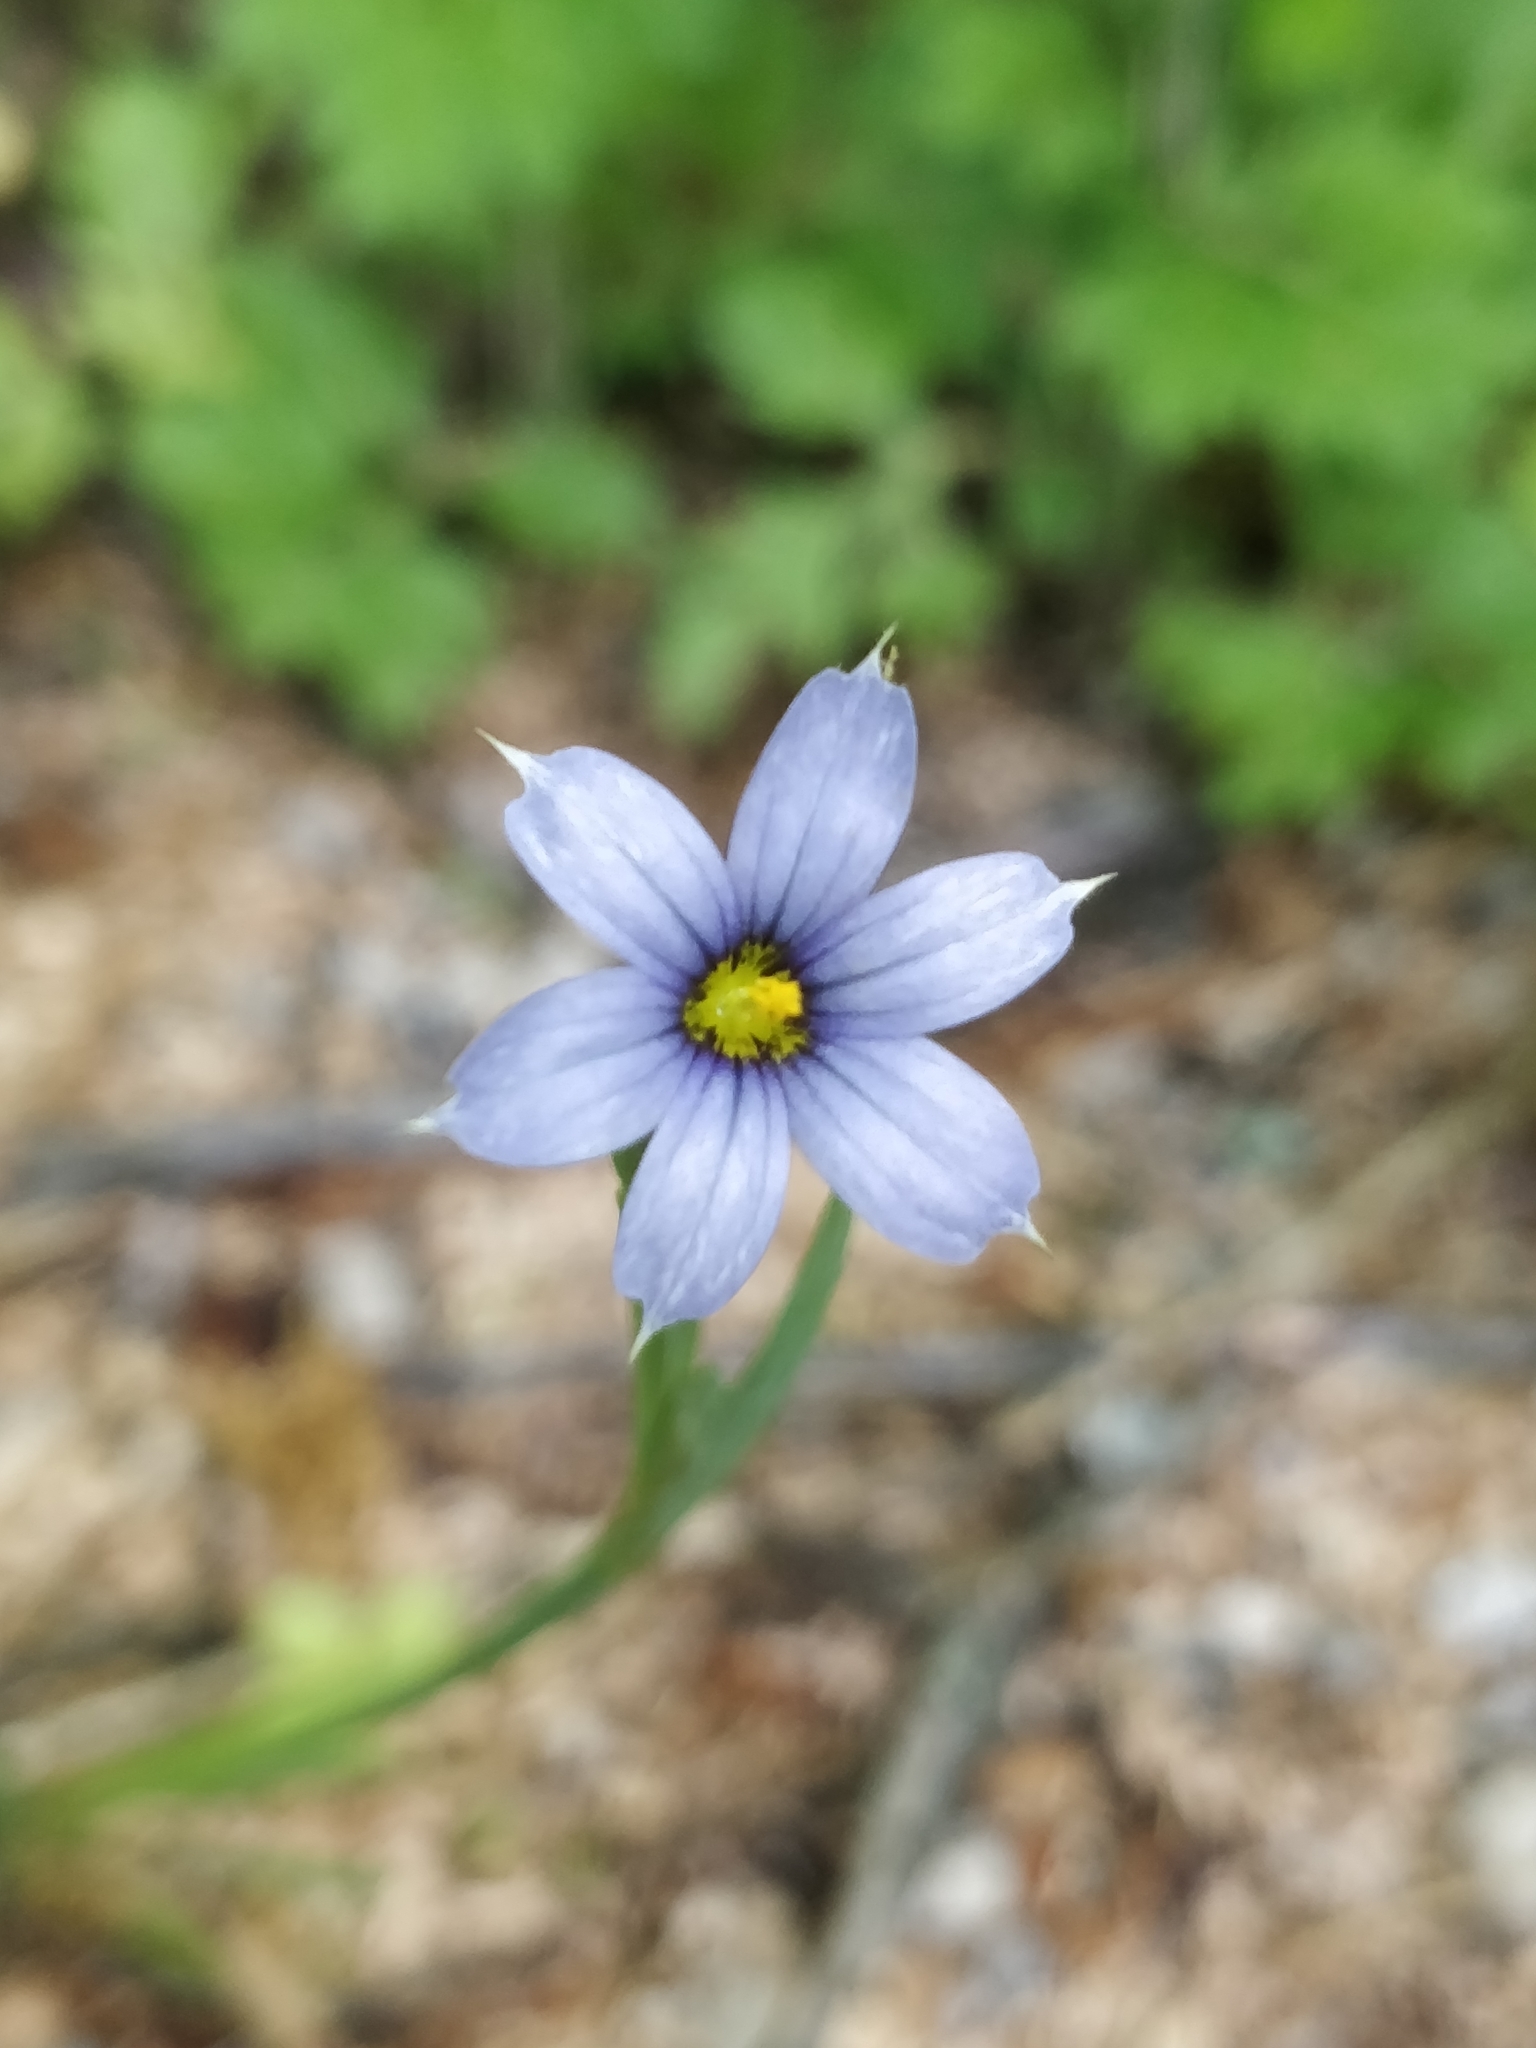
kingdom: Plantae
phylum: Tracheophyta
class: Liliopsida
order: Asparagales
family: Iridaceae
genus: Sisyrinchium
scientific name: Sisyrinchium angustifolium
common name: Narrow-leaf blue-eyed-grass
